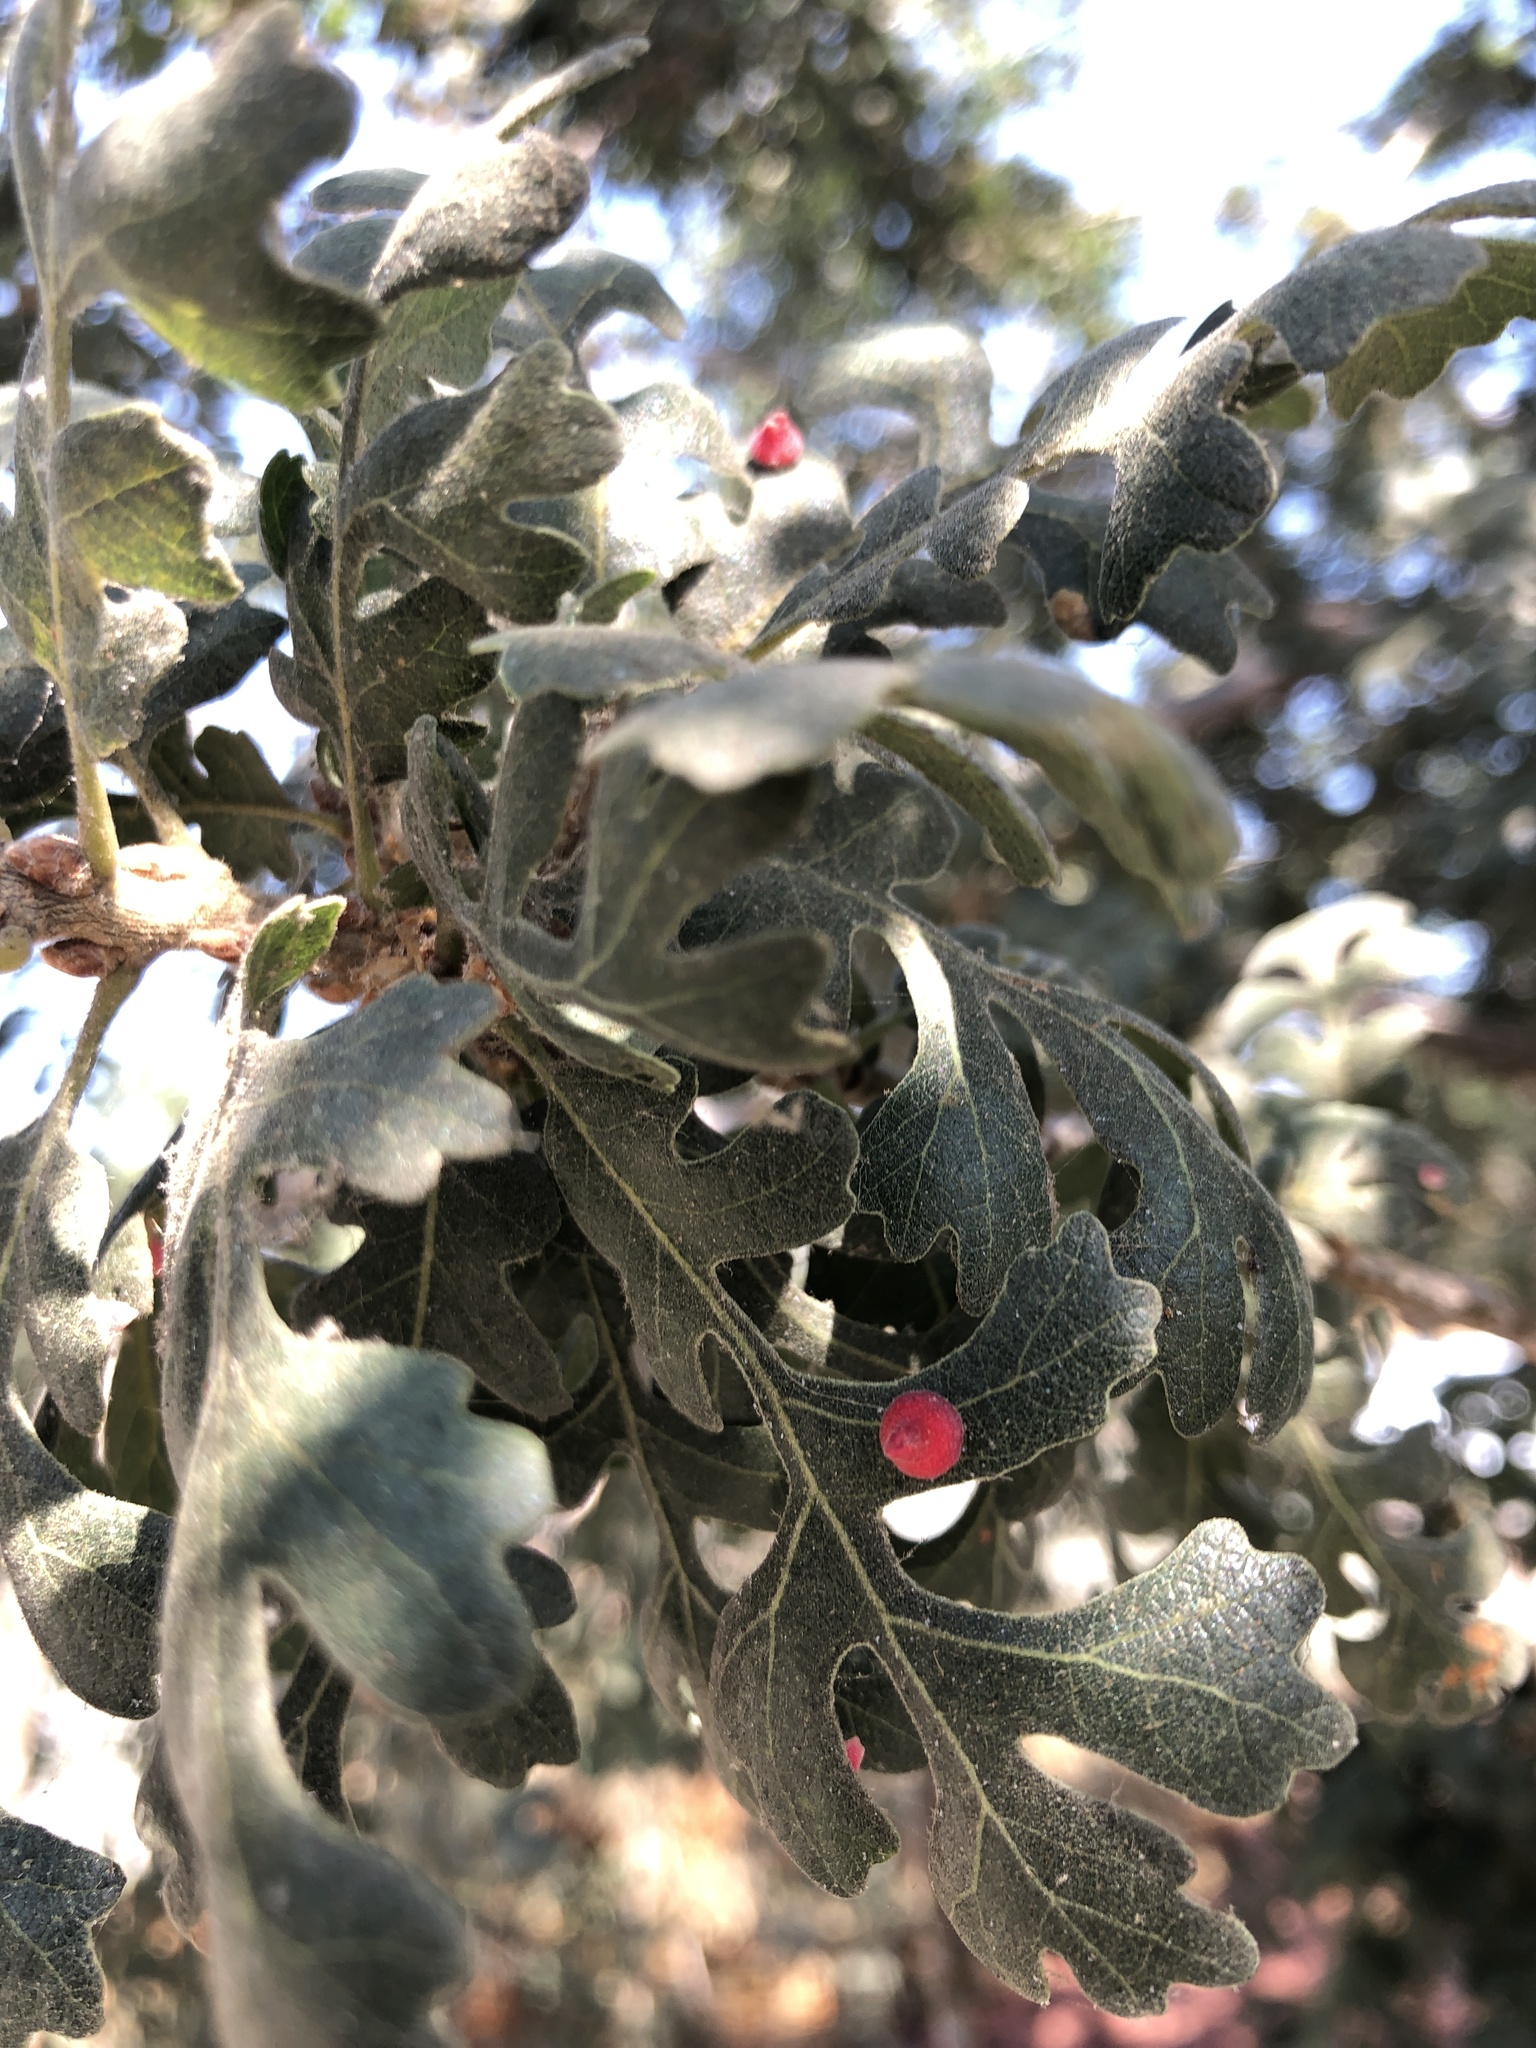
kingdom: Animalia
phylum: Arthropoda
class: Insecta
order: Hymenoptera
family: Cynipidae
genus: Andricus
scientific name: Andricus
